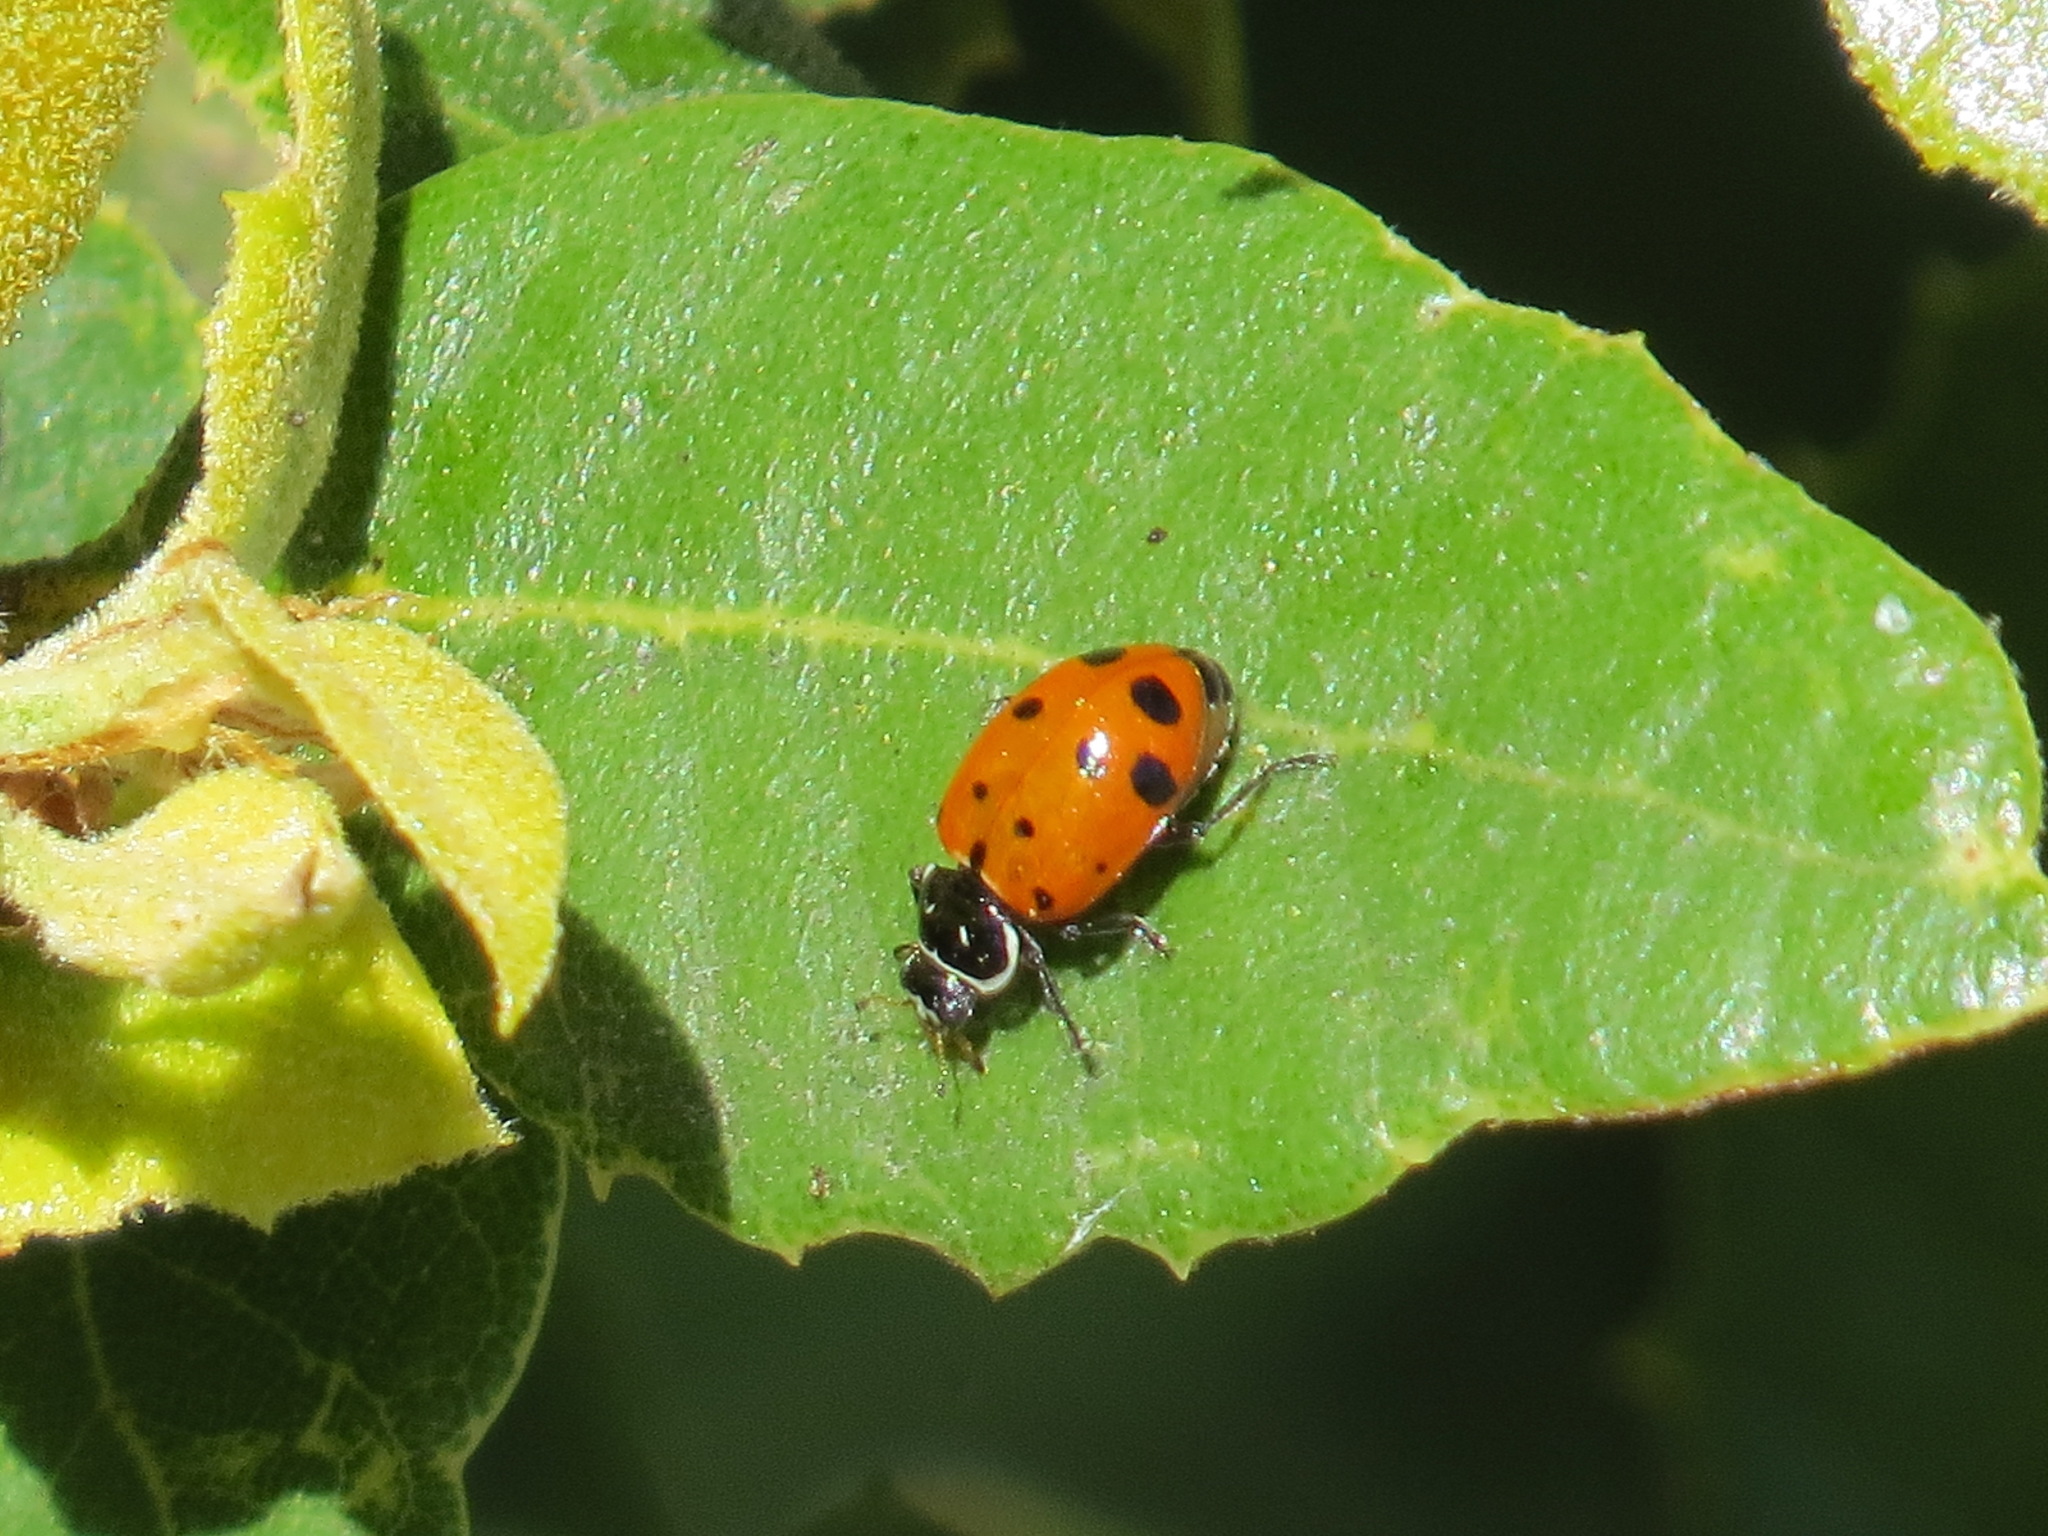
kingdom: Animalia
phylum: Arthropoda
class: Insecta
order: Coleoptera
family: Coccinellidae
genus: Hippodamia
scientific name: Hippodamia convergens
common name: Convergent lady beetle
